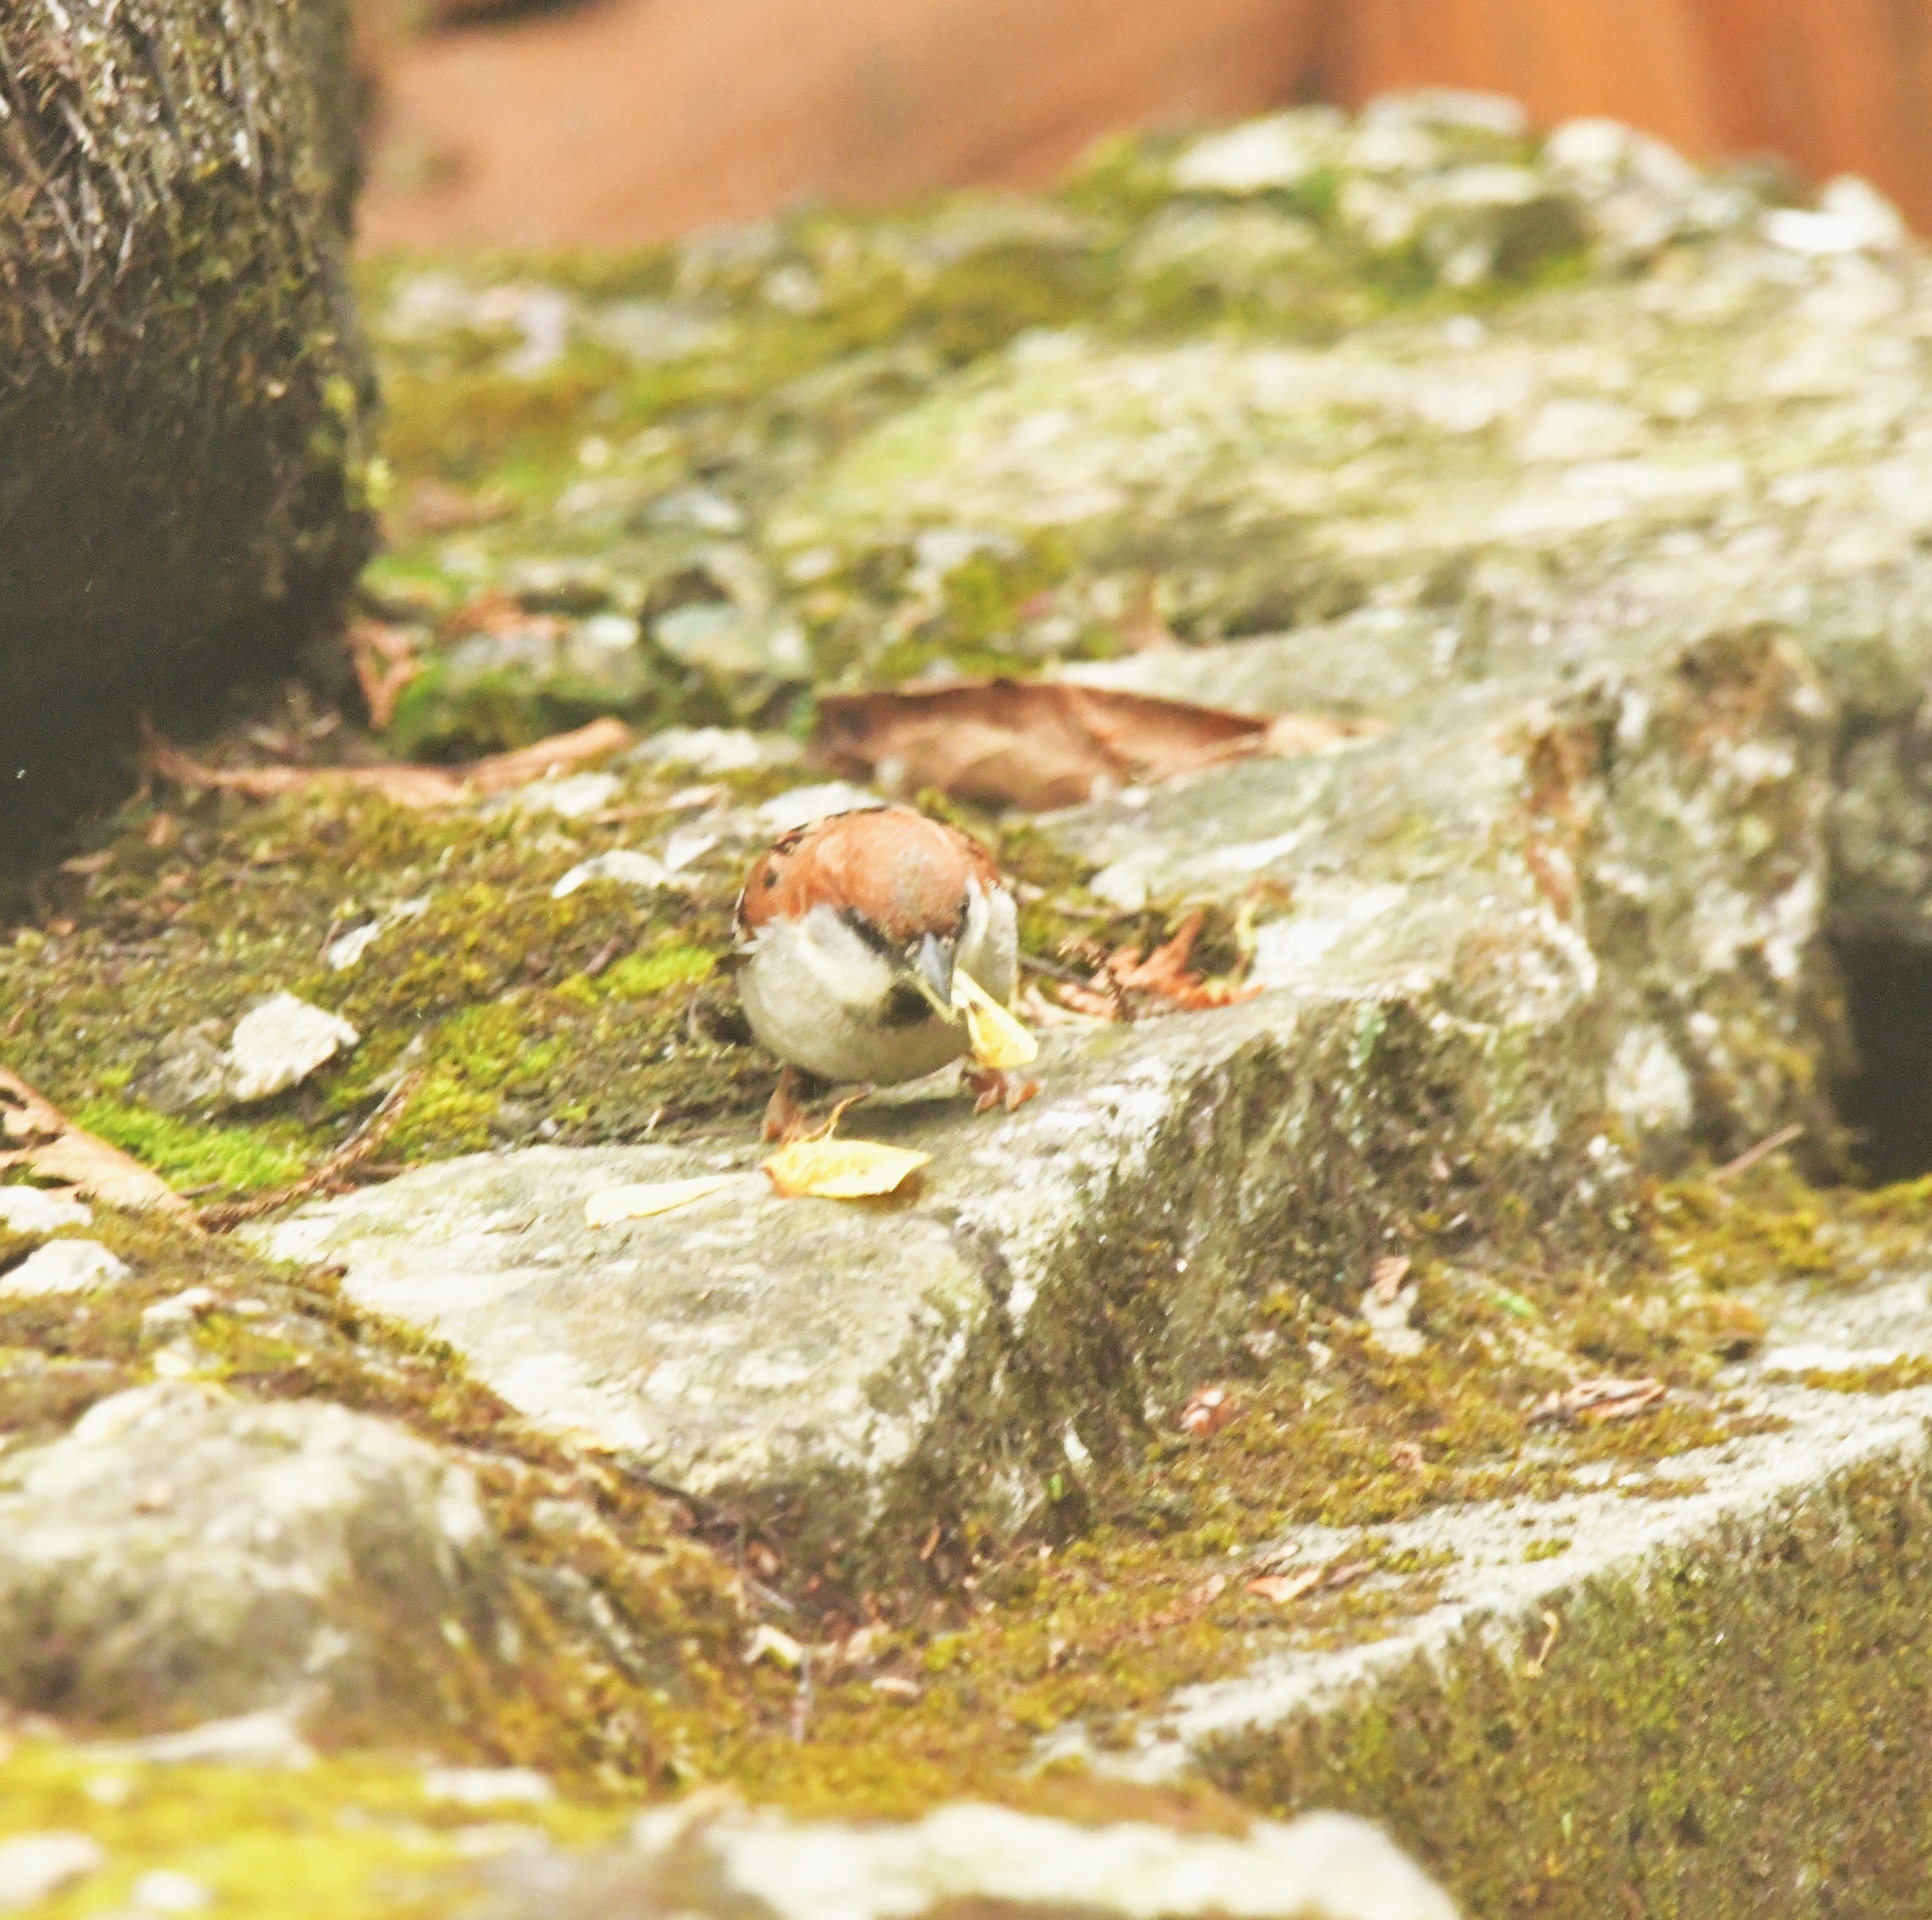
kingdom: Animalia
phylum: Chordata
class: Aves
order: Passeriformes
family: Passeridae
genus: Passer
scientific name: Passer cinnamomeus
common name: Russet sparrow
